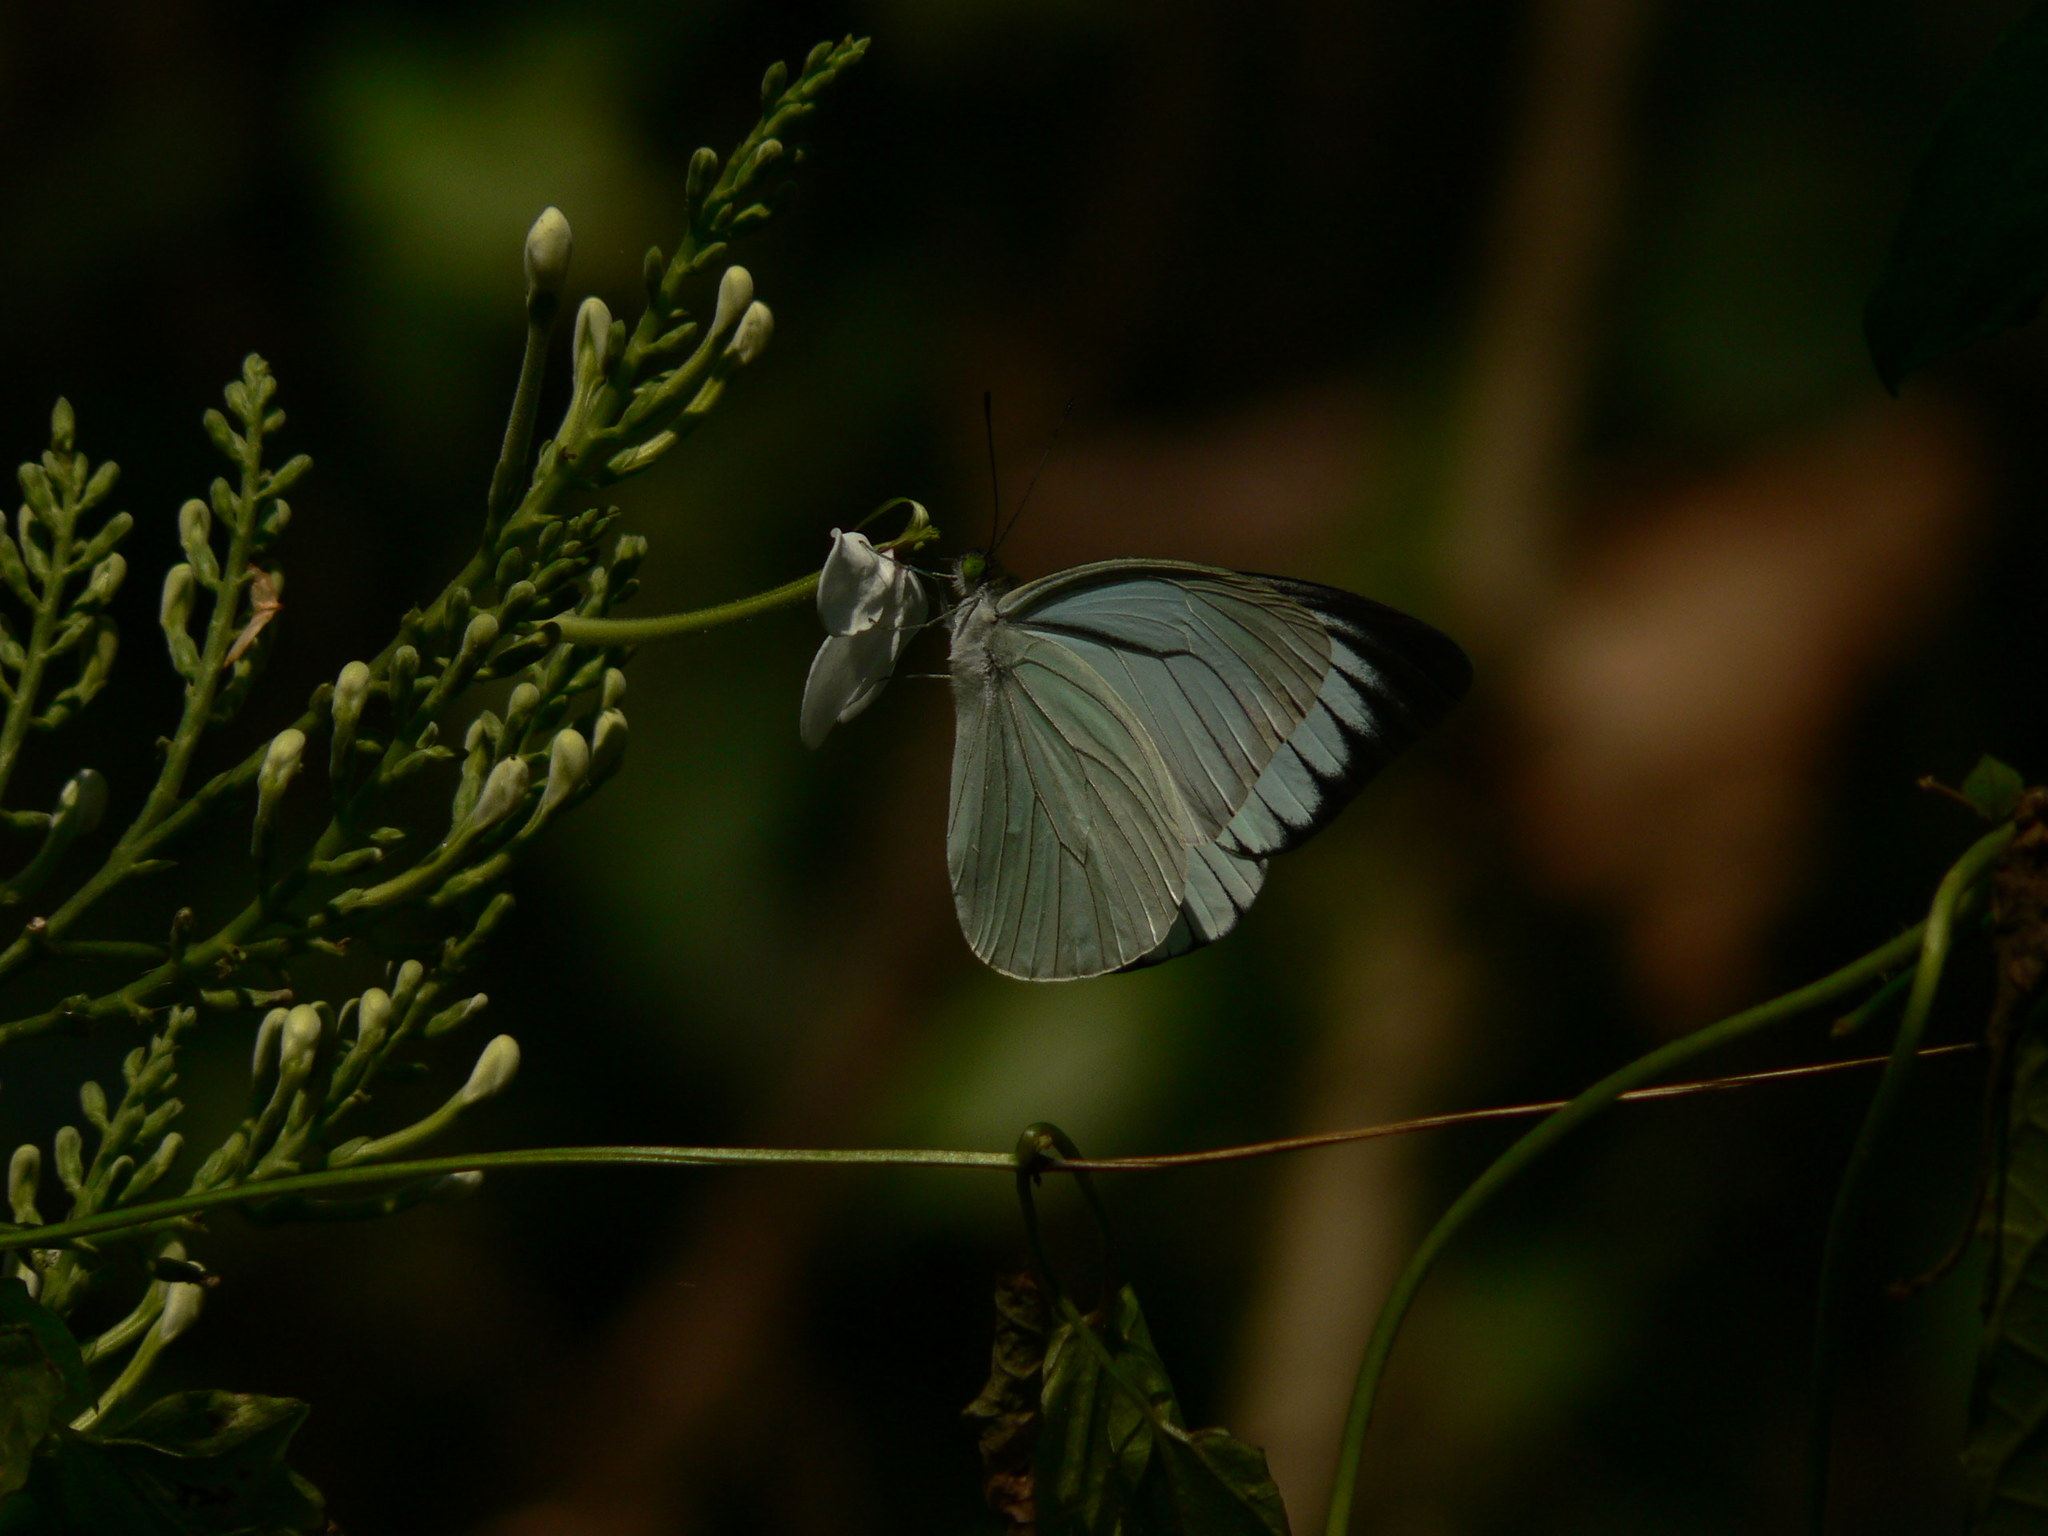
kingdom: Animalia
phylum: Arthropoda
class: Insecta
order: Lepidoptera
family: Pieridae
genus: Pareronia
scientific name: Pareronia avatar
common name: Pale wanderer
